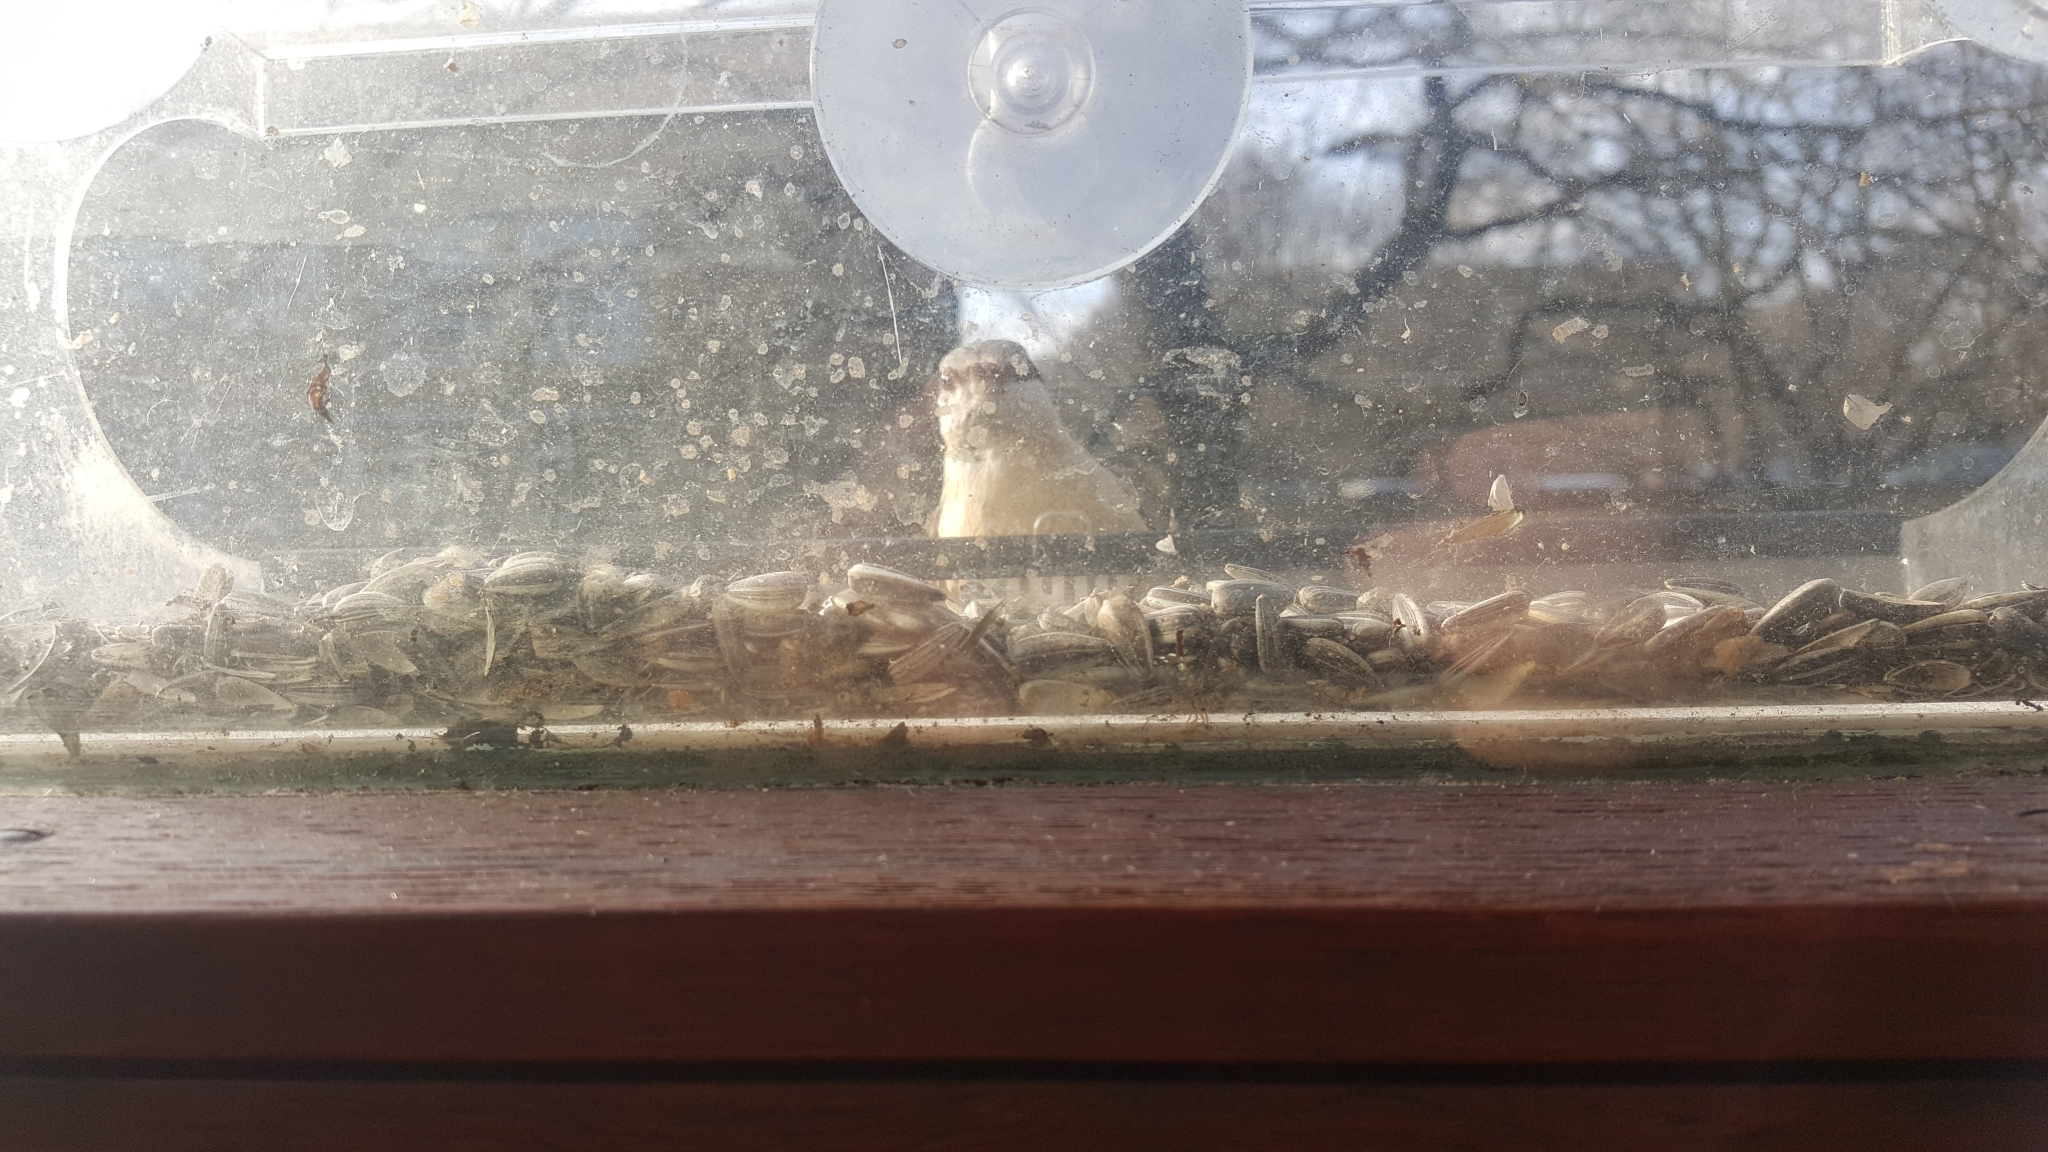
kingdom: Animalia
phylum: Chordata
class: Aves
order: Passeriformes
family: Sittidae
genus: Sitta
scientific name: Sitta europaea
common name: Eurasian nuthatch
